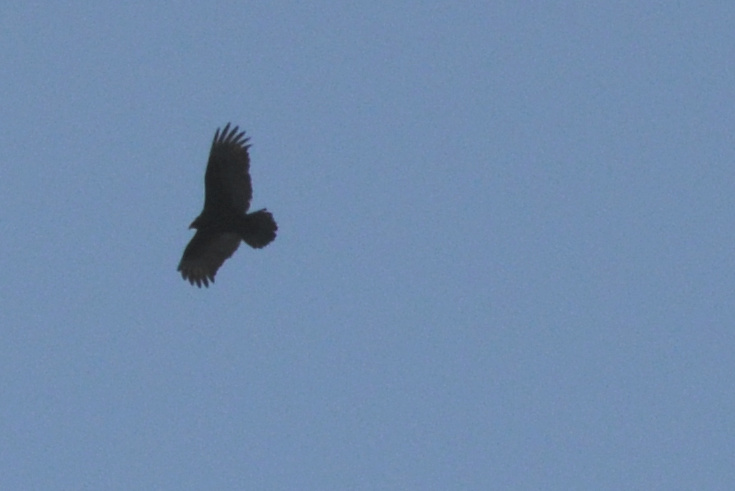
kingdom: Animalia
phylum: Chordata
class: Aves
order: Accipitriformes
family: Cathartidae
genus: Cathartes
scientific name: Cathartes aura
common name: Turkey vulture
